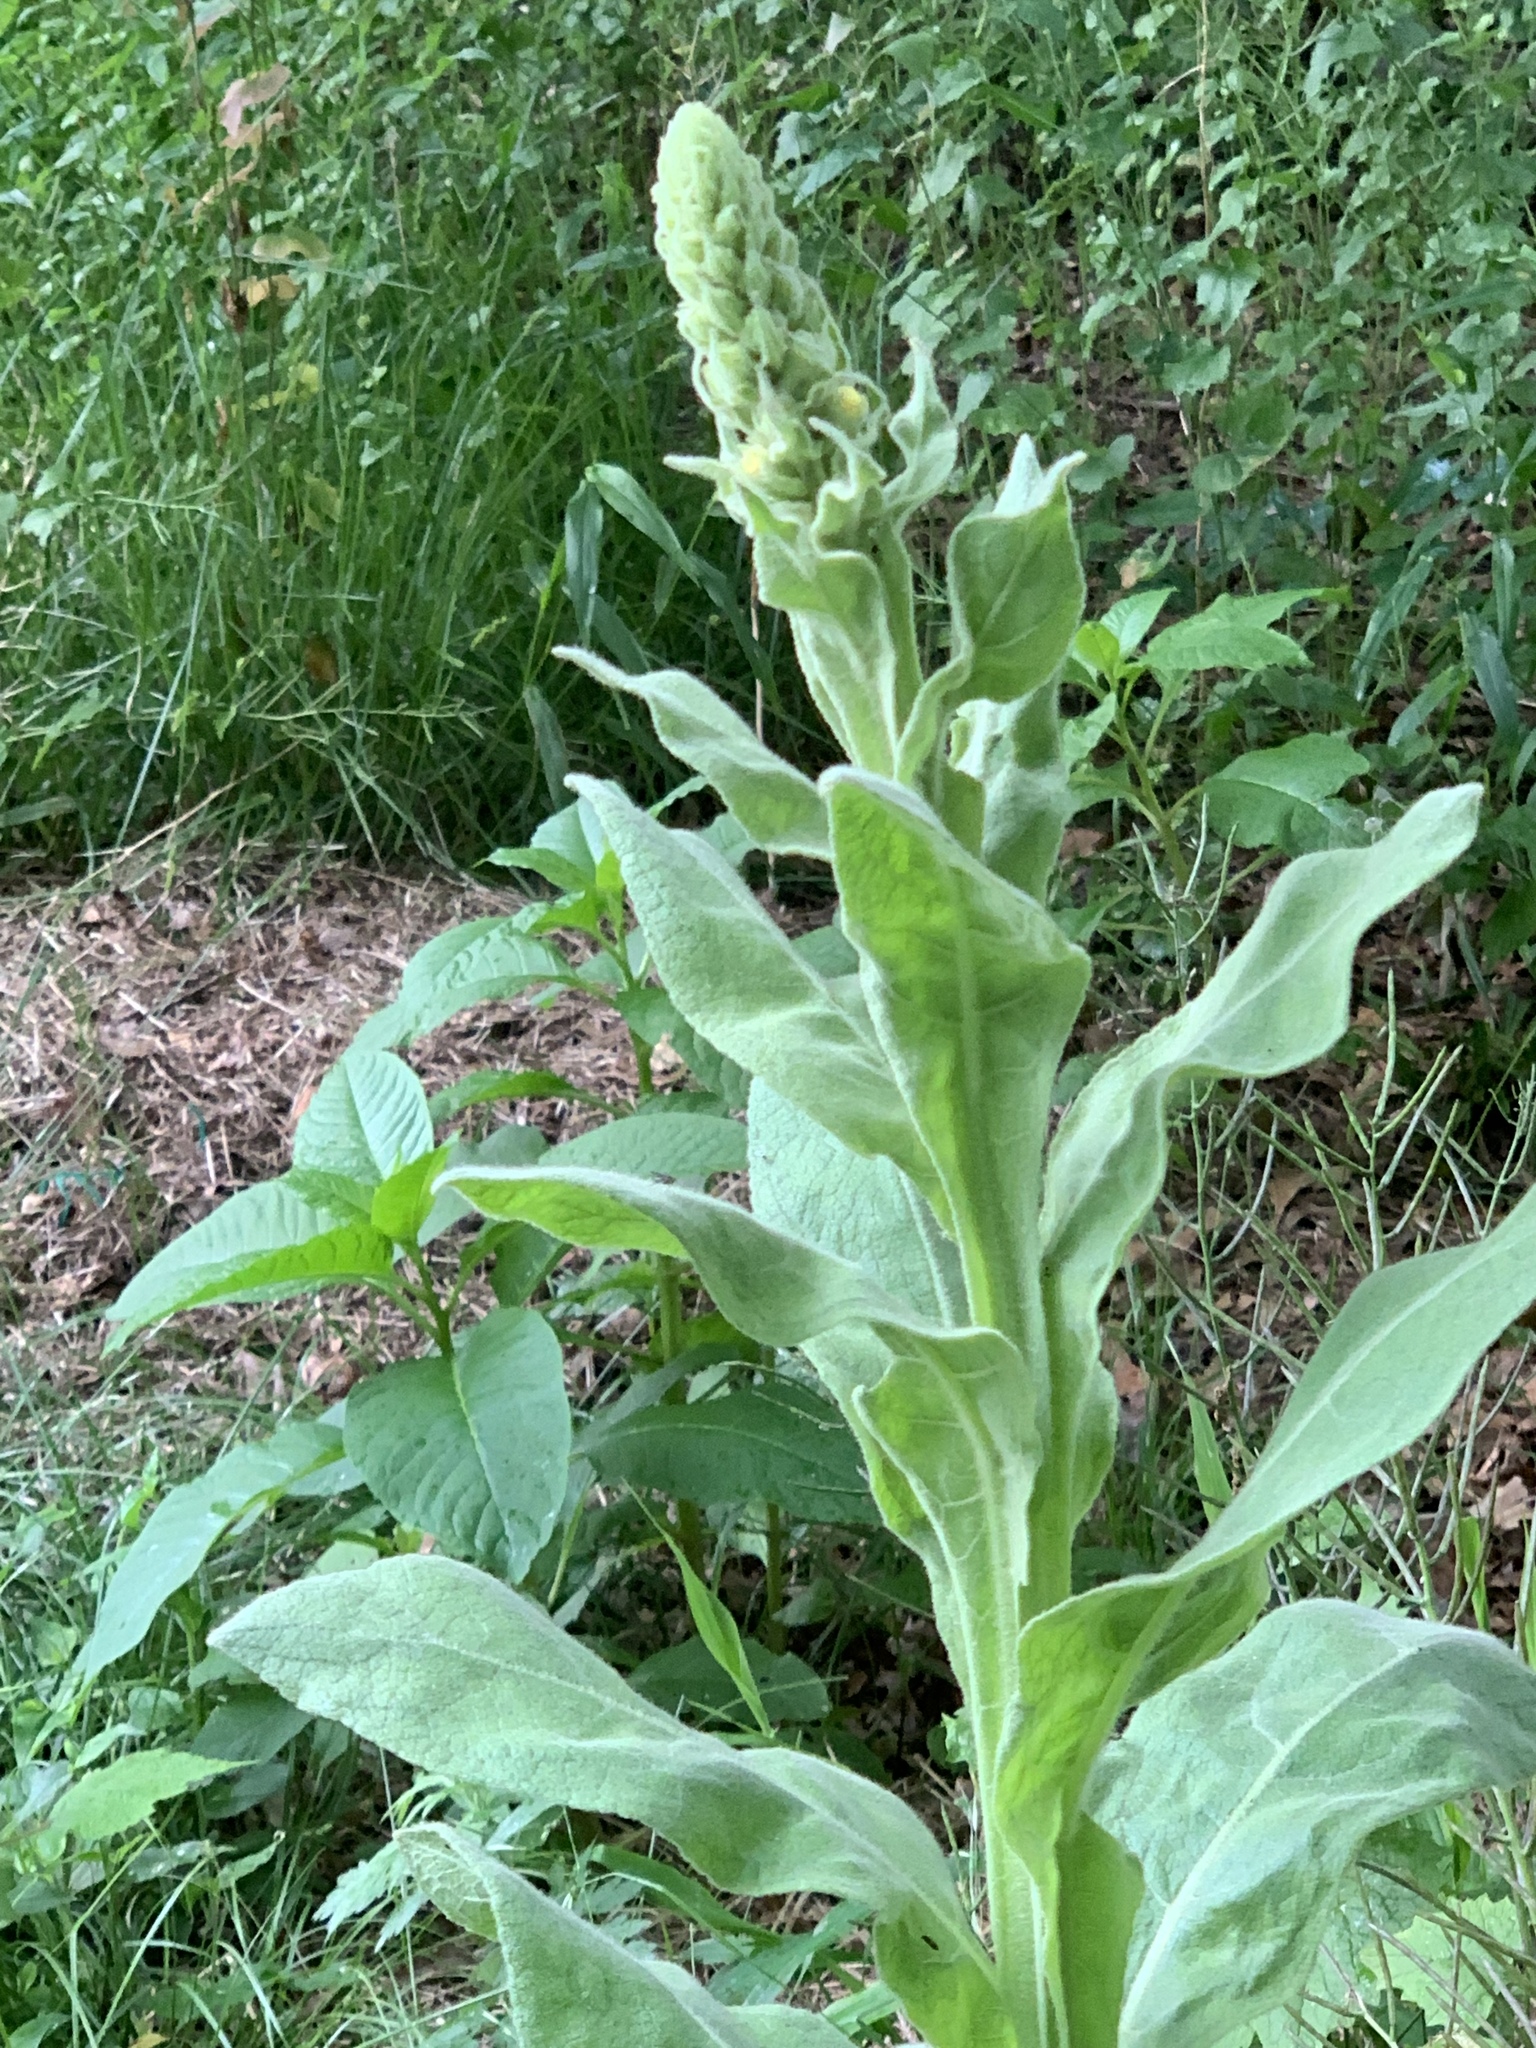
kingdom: Plantae
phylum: Tracheophyta
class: Magnoliopsida
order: Lamiales
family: Scrophulariaceae
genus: Verbascum
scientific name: Verbascum thapsus
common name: Common mullein
